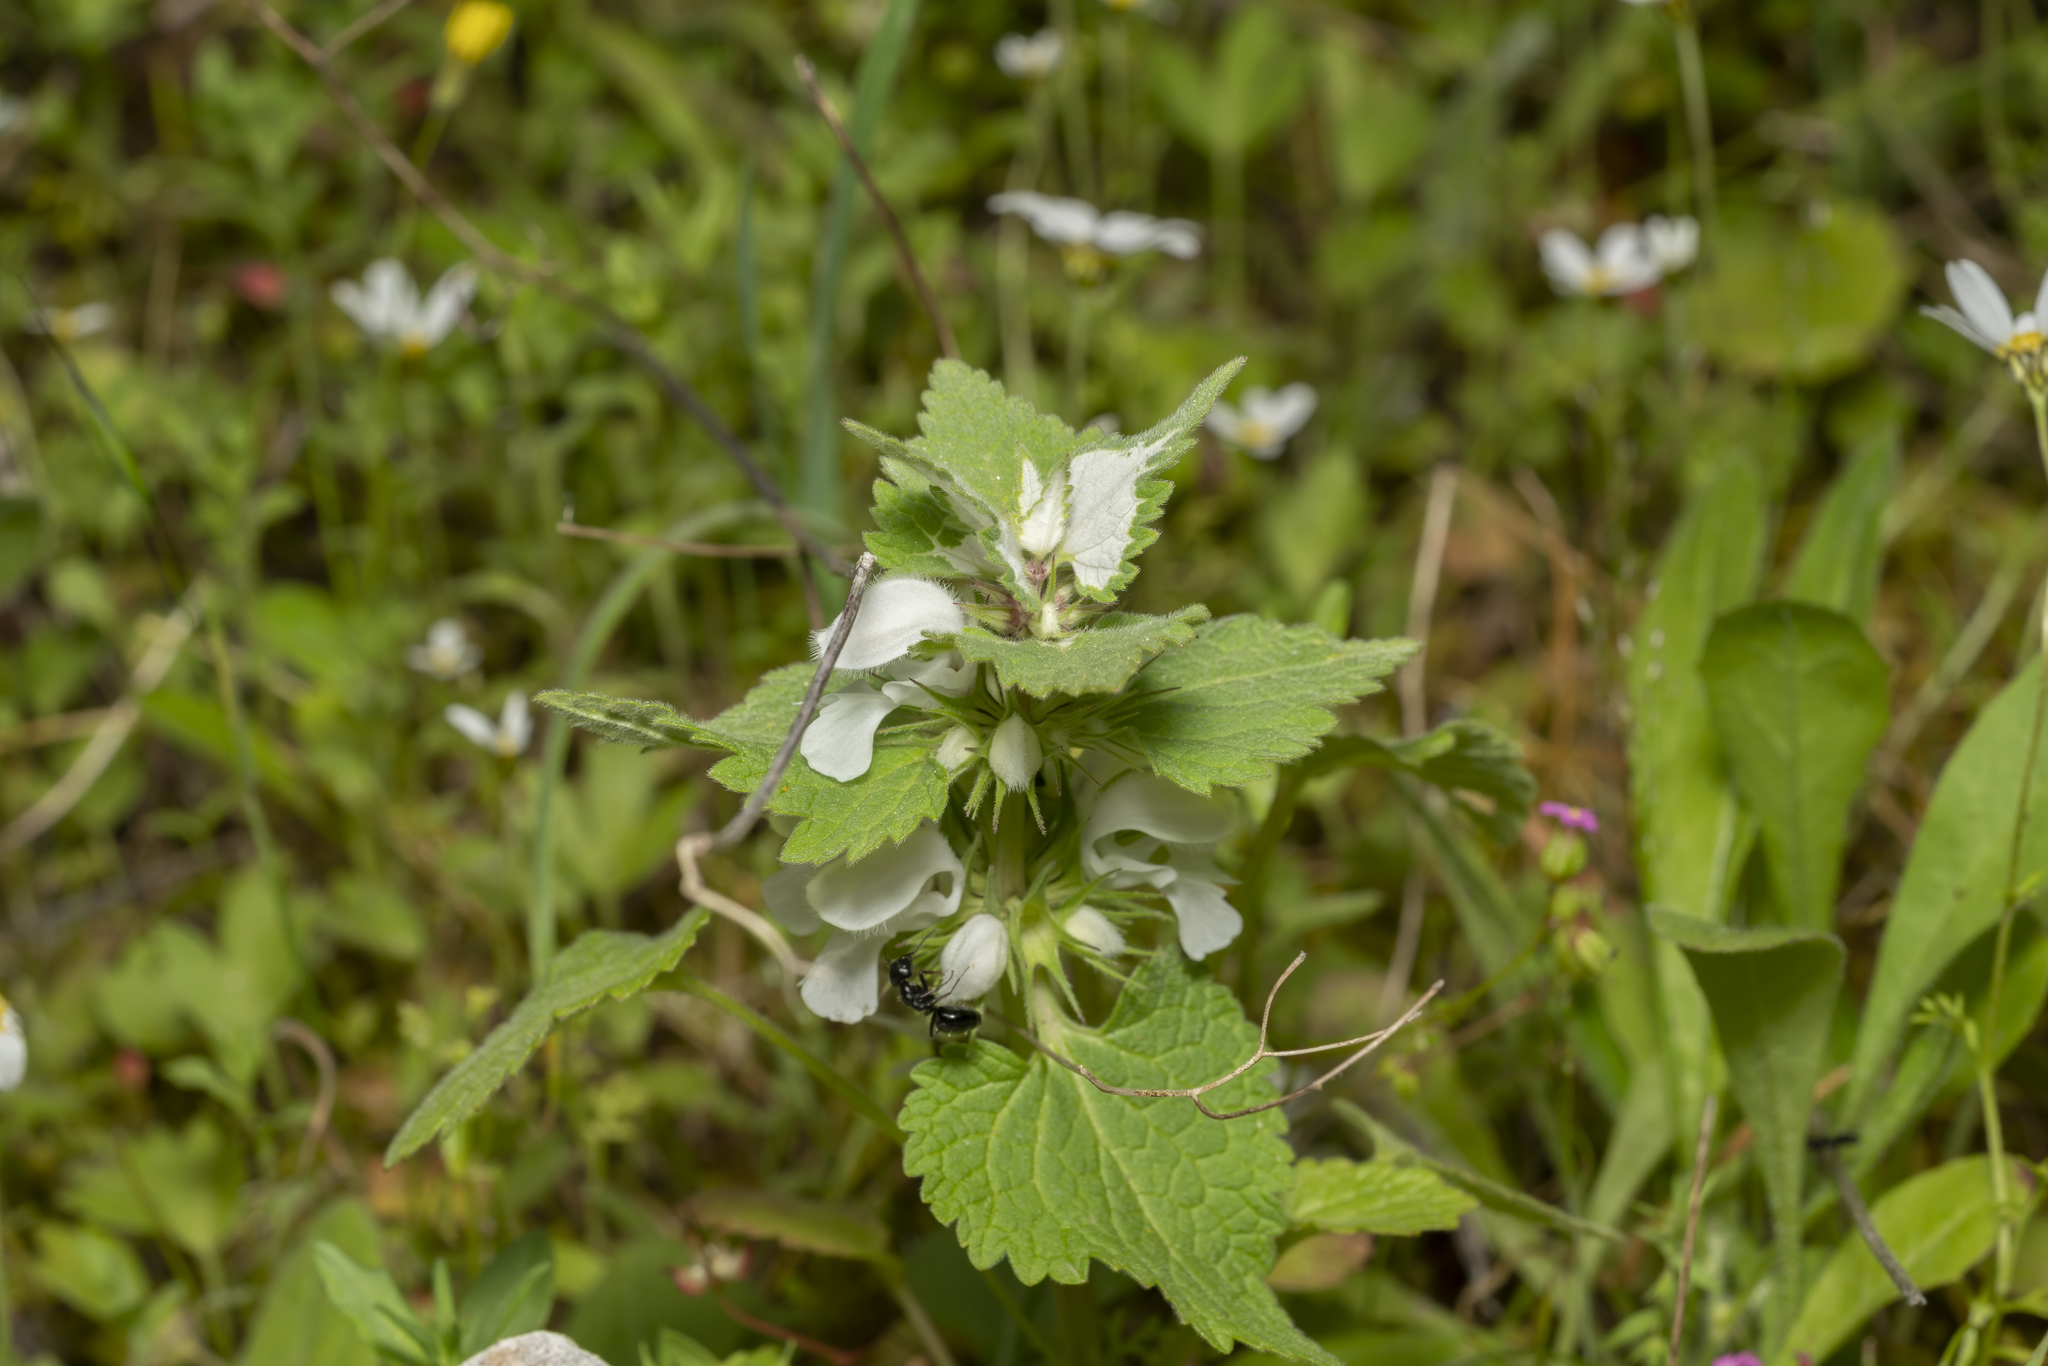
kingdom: Plantae
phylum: Tracheophyta
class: Magnoliopsida
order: Lamiales
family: Lamiaceae
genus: Lamium
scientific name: Lamium moschatum
